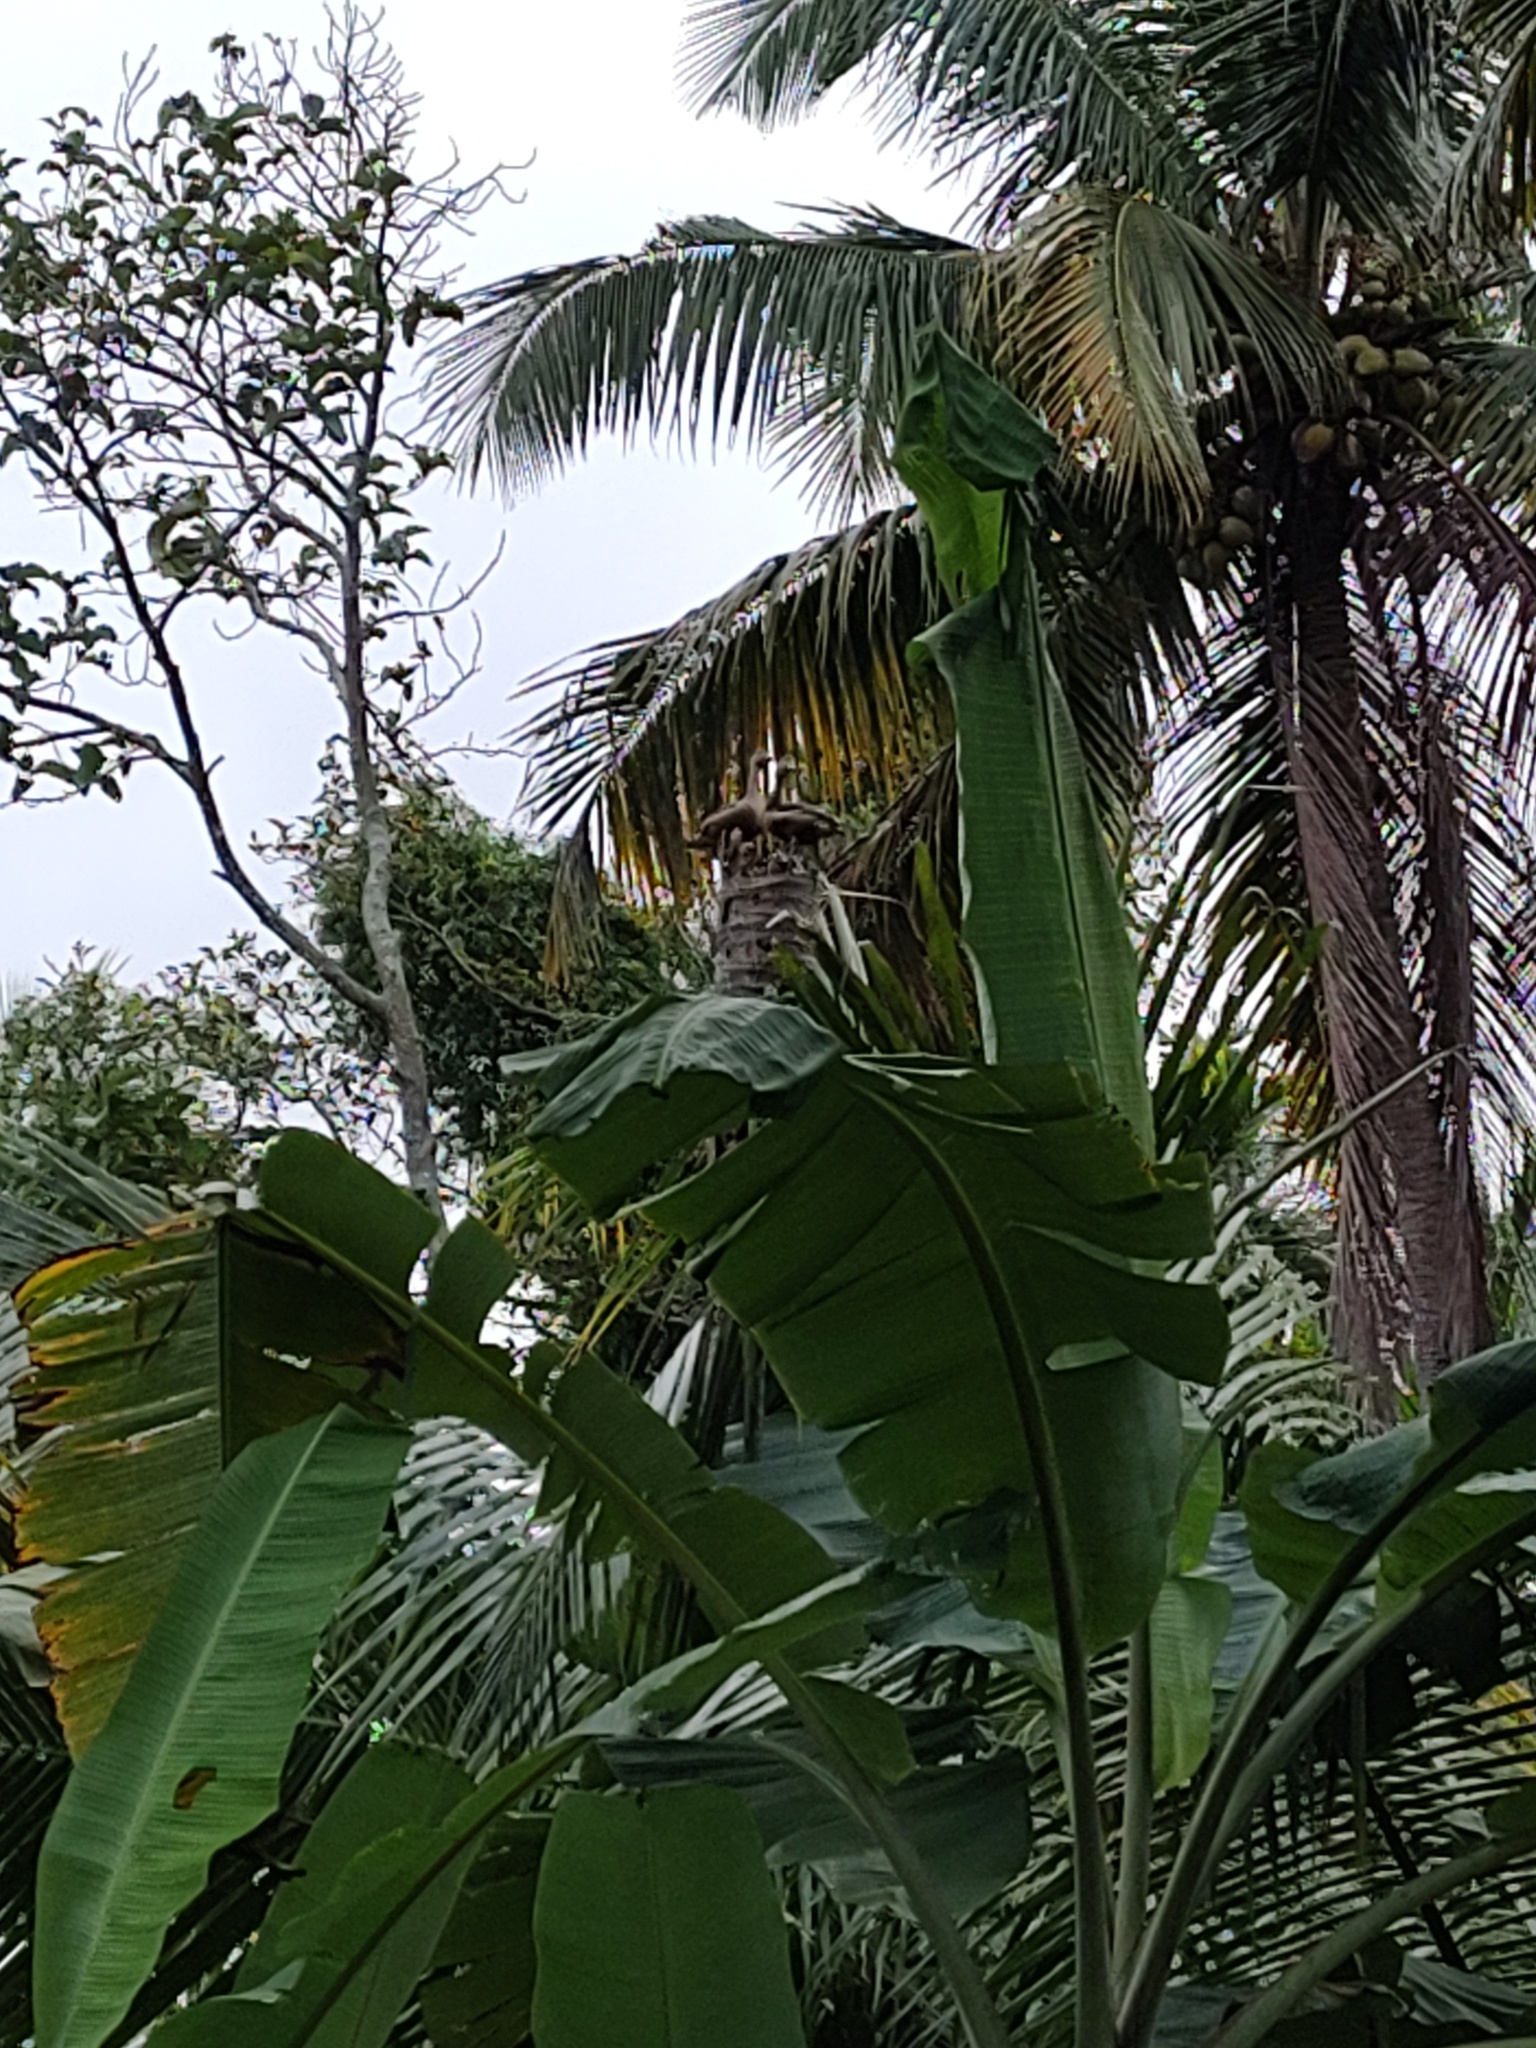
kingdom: Animalia
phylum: Chordata
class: Aves
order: Anseriformes
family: Anatidae
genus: Dendrocygna
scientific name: Dendrocygna javanica
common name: Lesser whistling-duck
